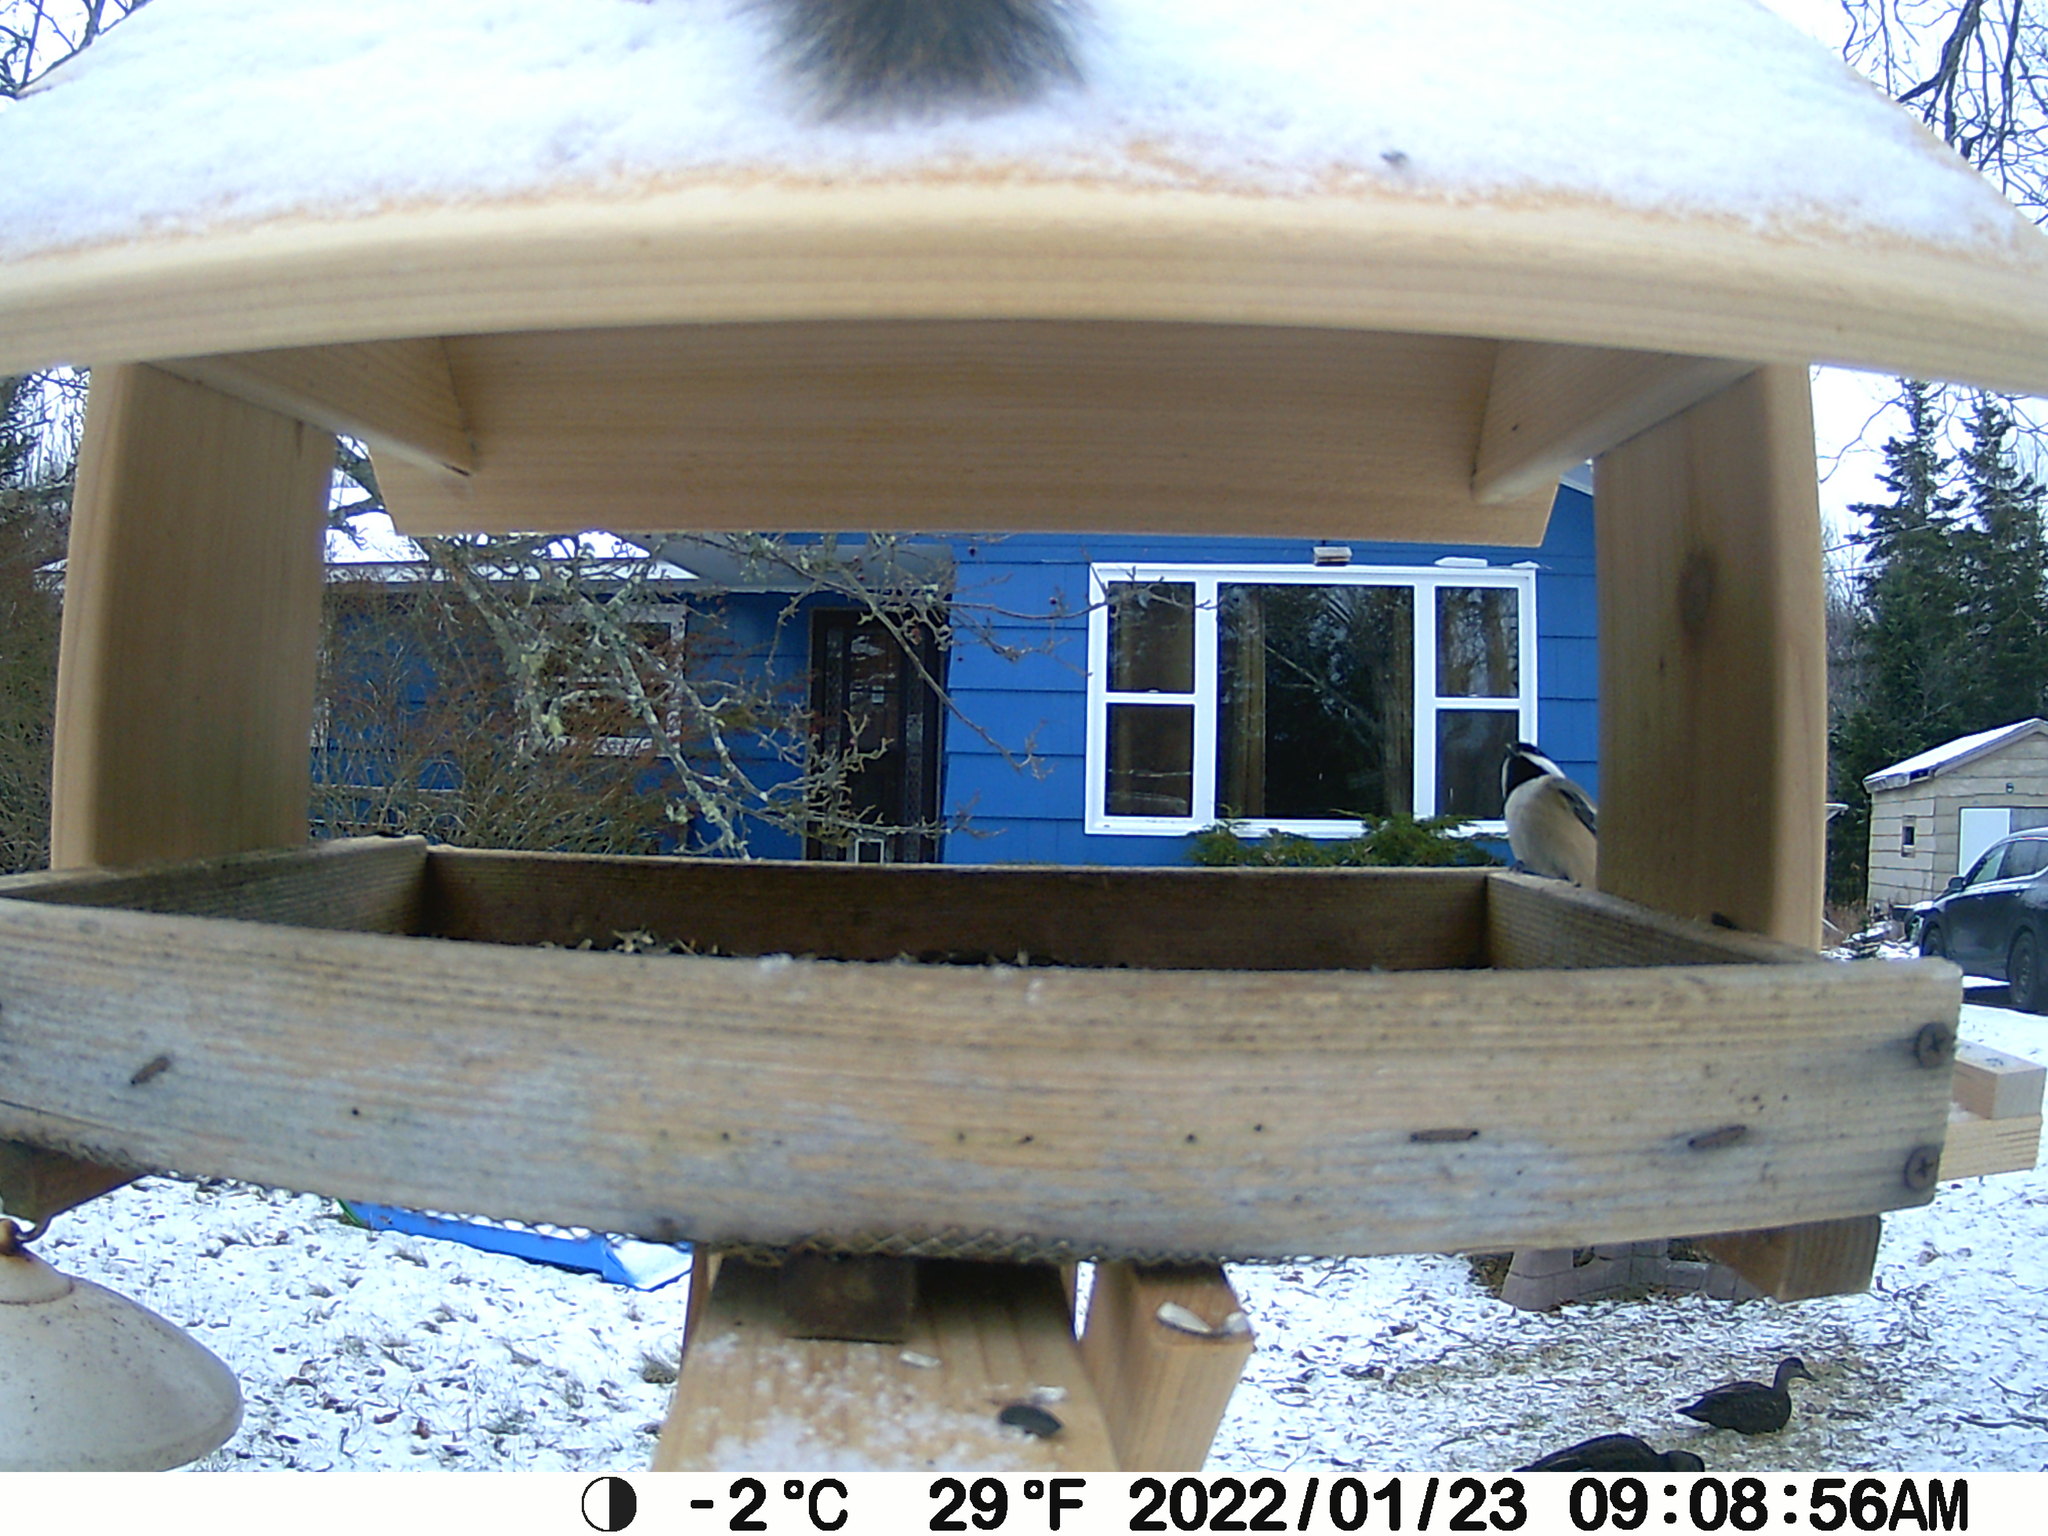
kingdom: Animalia
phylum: Chordata
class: Aves
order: Anseriformes
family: Anatidae
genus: Anas
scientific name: Anas rubripes
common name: American black duck
